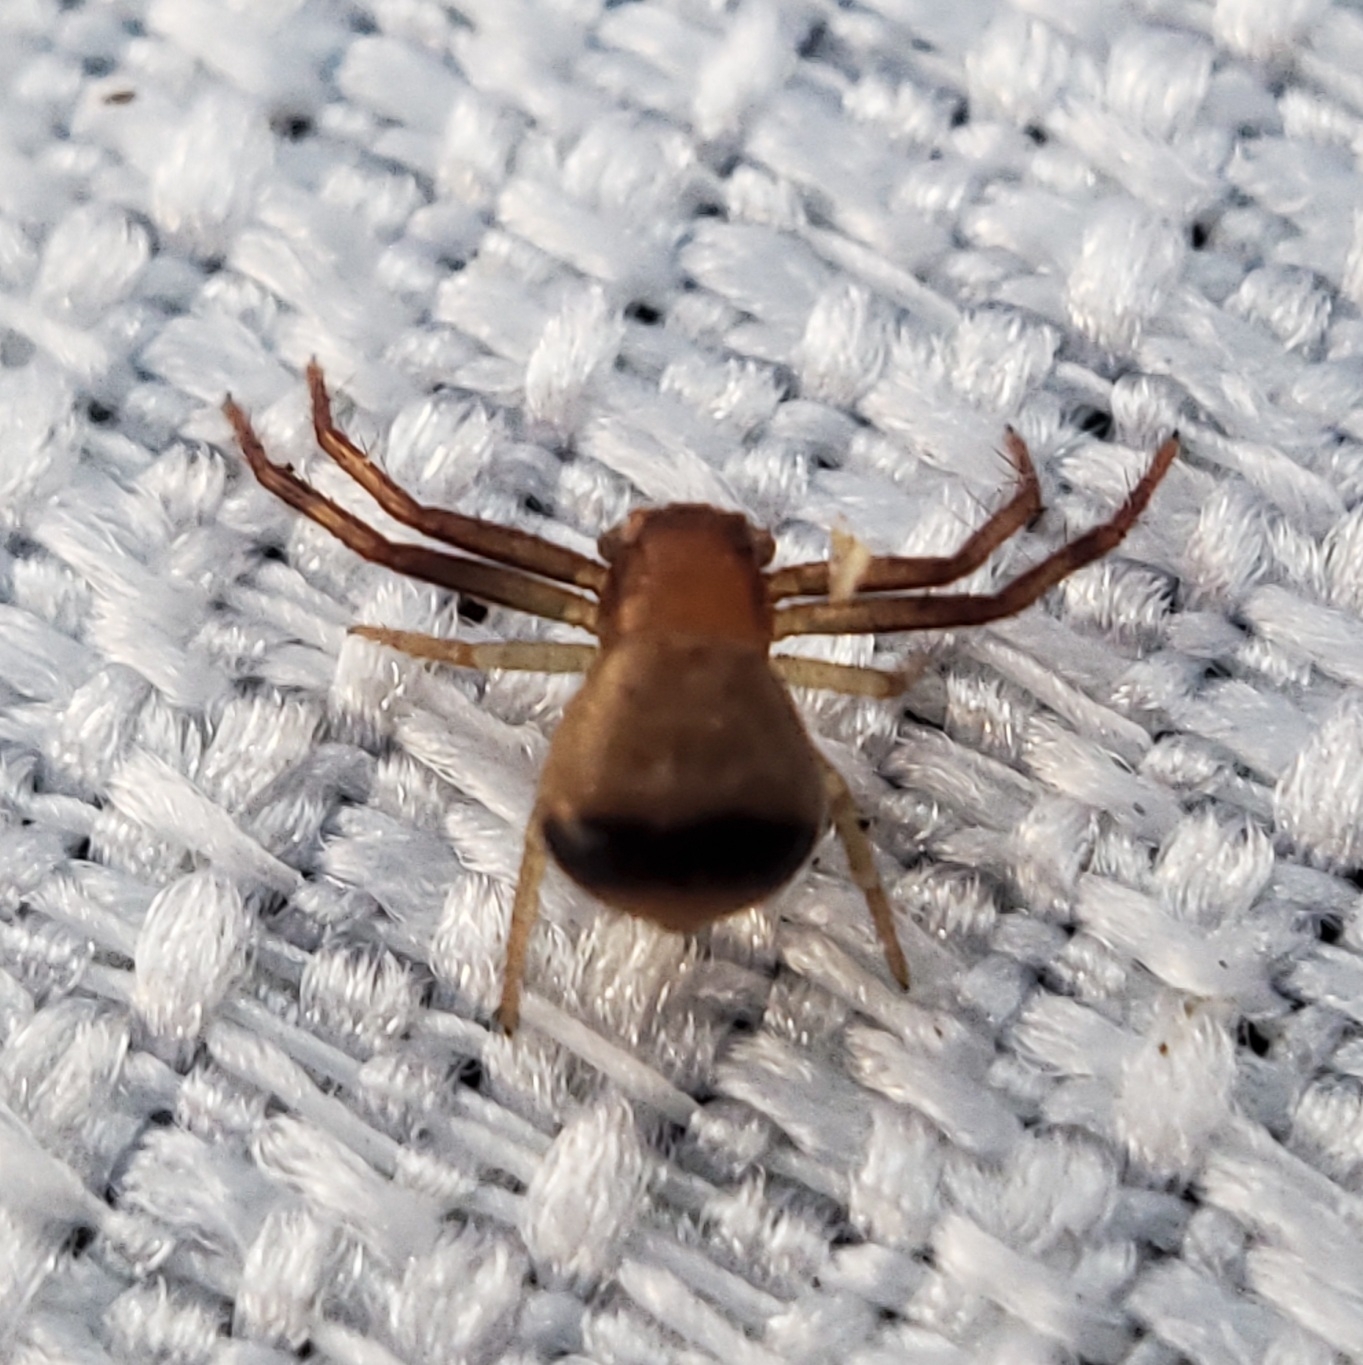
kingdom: Animalia
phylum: Arthropoda
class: Arachnida
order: Araneae
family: Thomisidae
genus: Synema
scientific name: Synema parvulum
